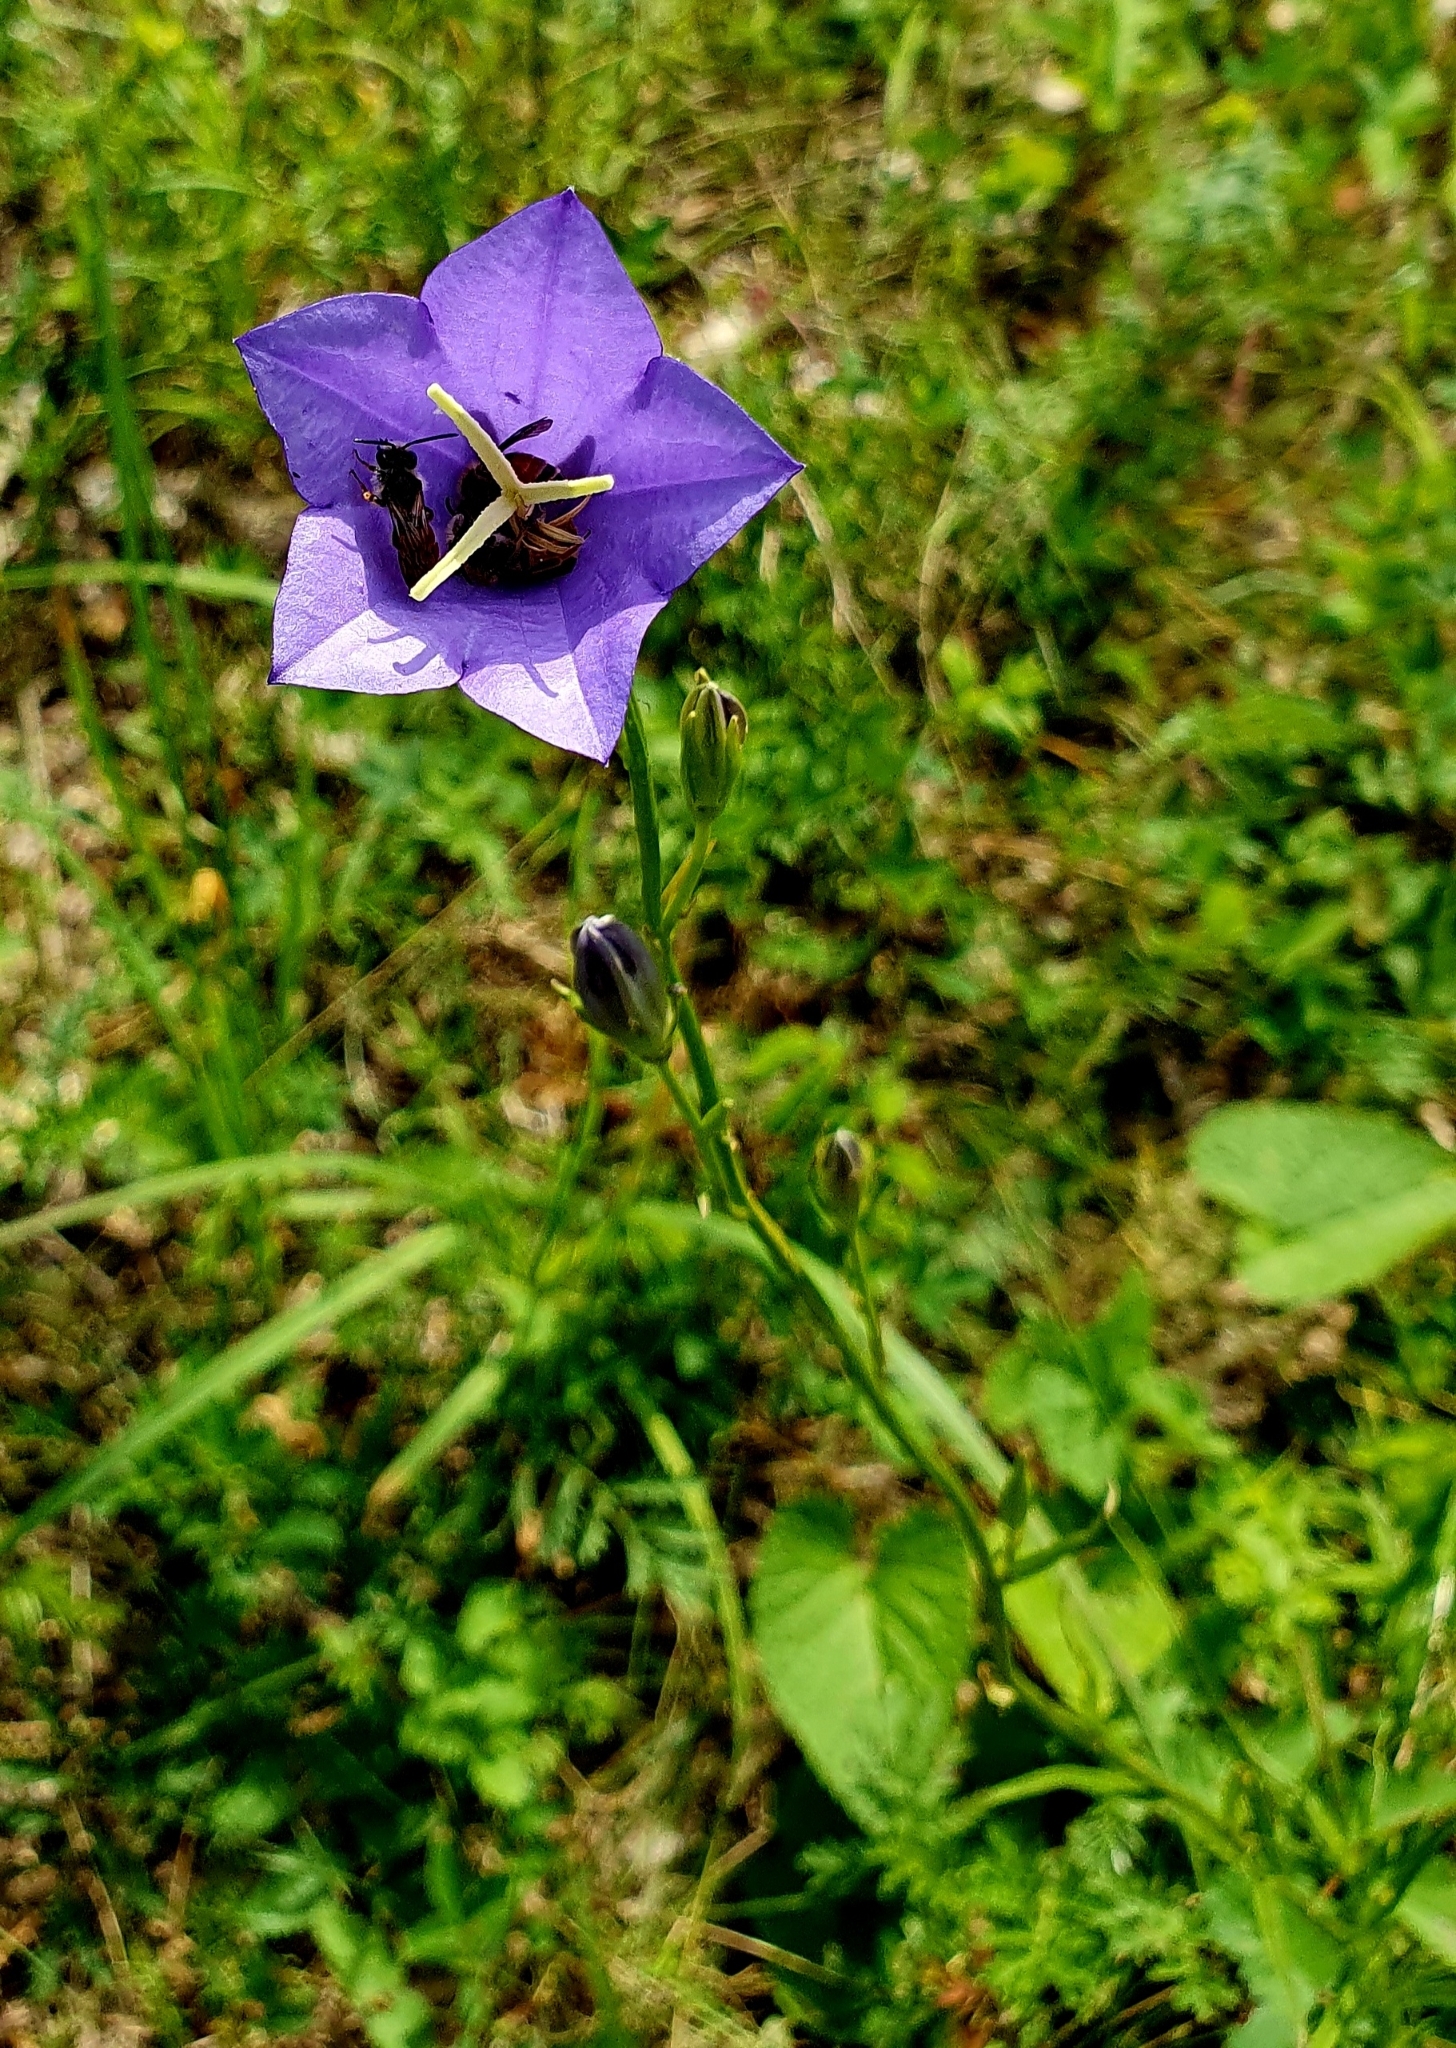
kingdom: Plantae
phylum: Tracheophyta
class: Magnoliopsida
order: Asterales
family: Campanulaceae
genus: Campanula
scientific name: Campanula persicifolia
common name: Peach-leaved bellflower
